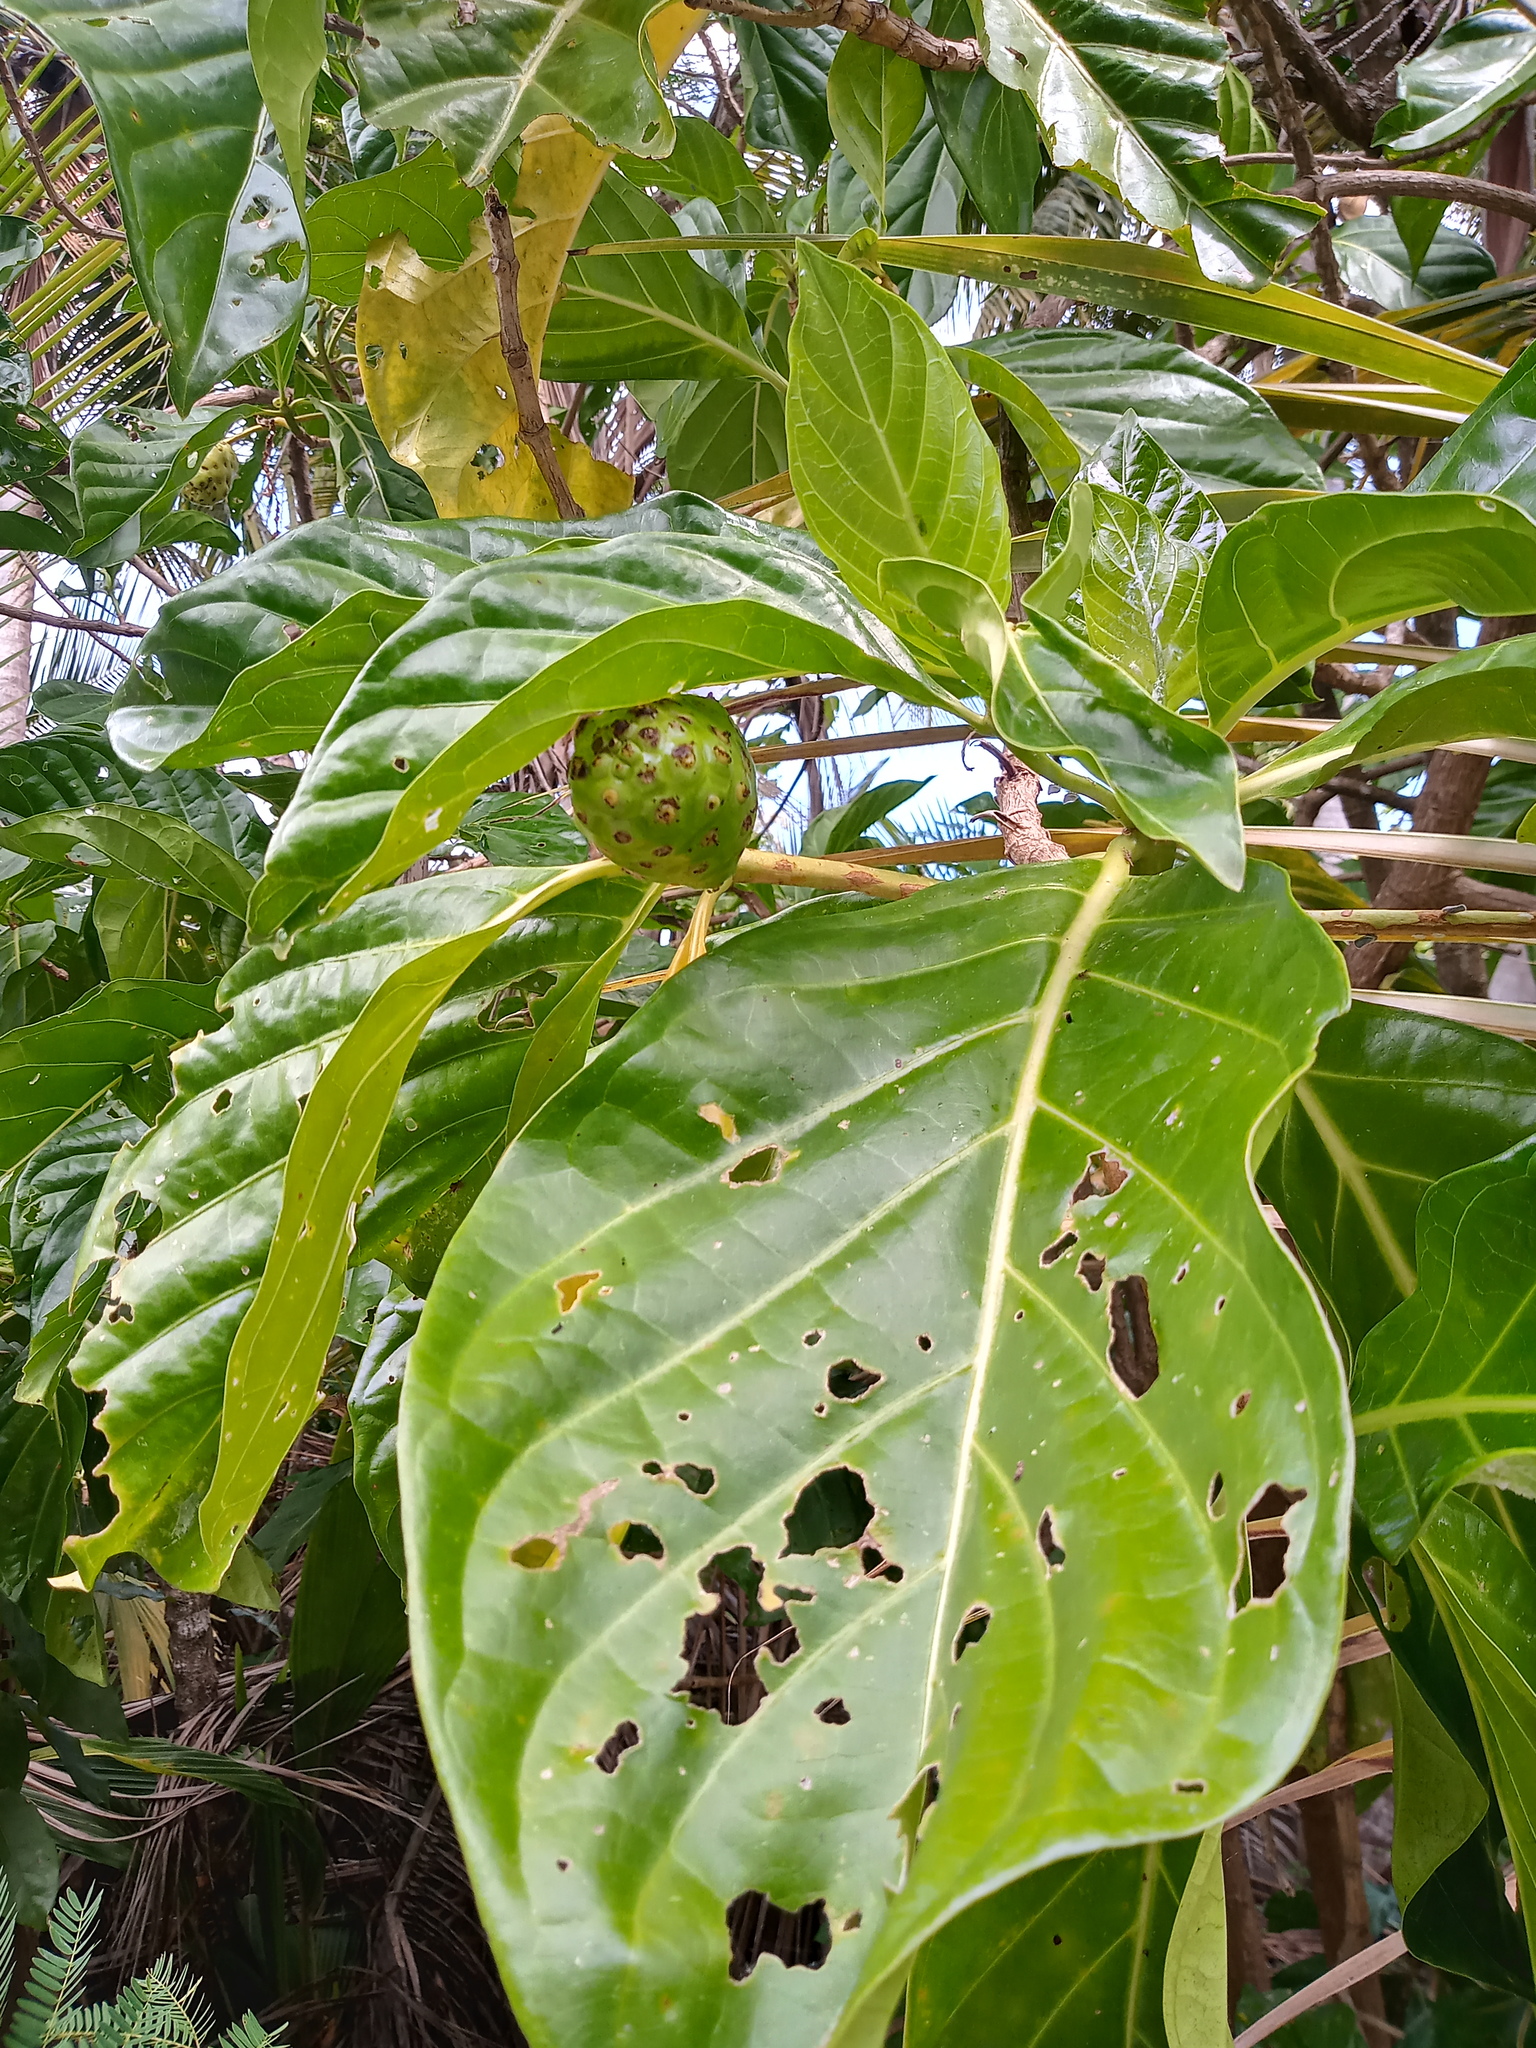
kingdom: Plantae
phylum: Tracheophyta
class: Magnoliopsida
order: Gentianales
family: Rubiaceae
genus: Morinda
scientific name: Morinda citrifolia
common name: Indian-mulberry
